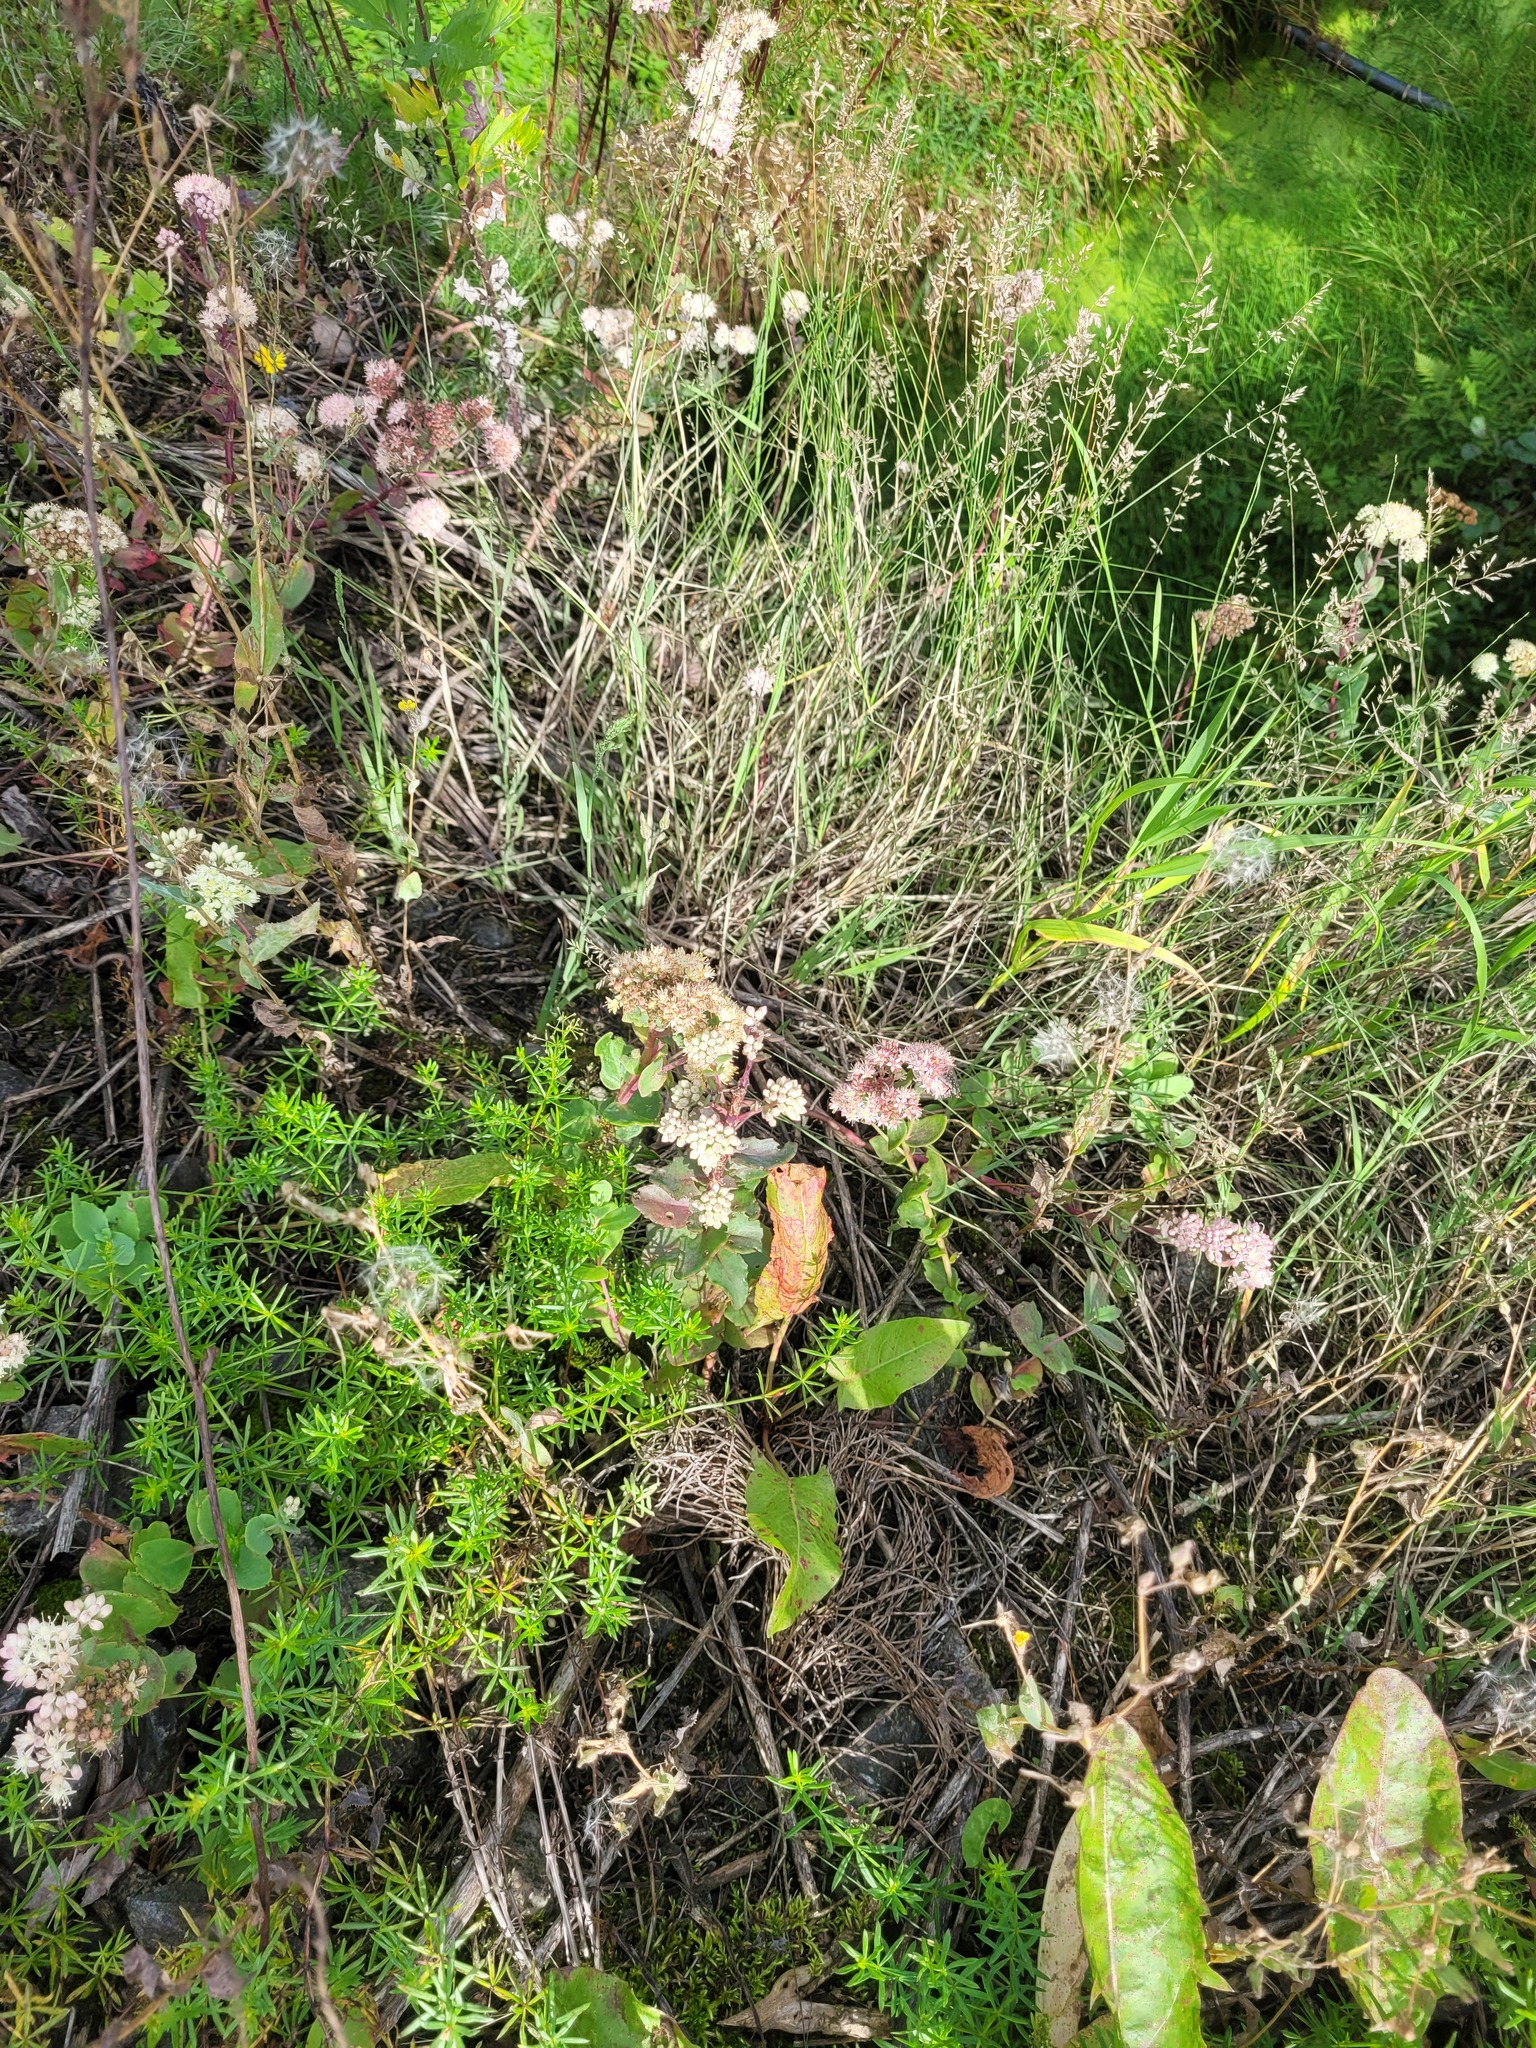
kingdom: Plantae
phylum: Tracheophyta
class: Magnoliopsida
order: Saxifragales
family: Crassulaceae
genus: Hylotelephium
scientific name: Hylotelephium maximum
